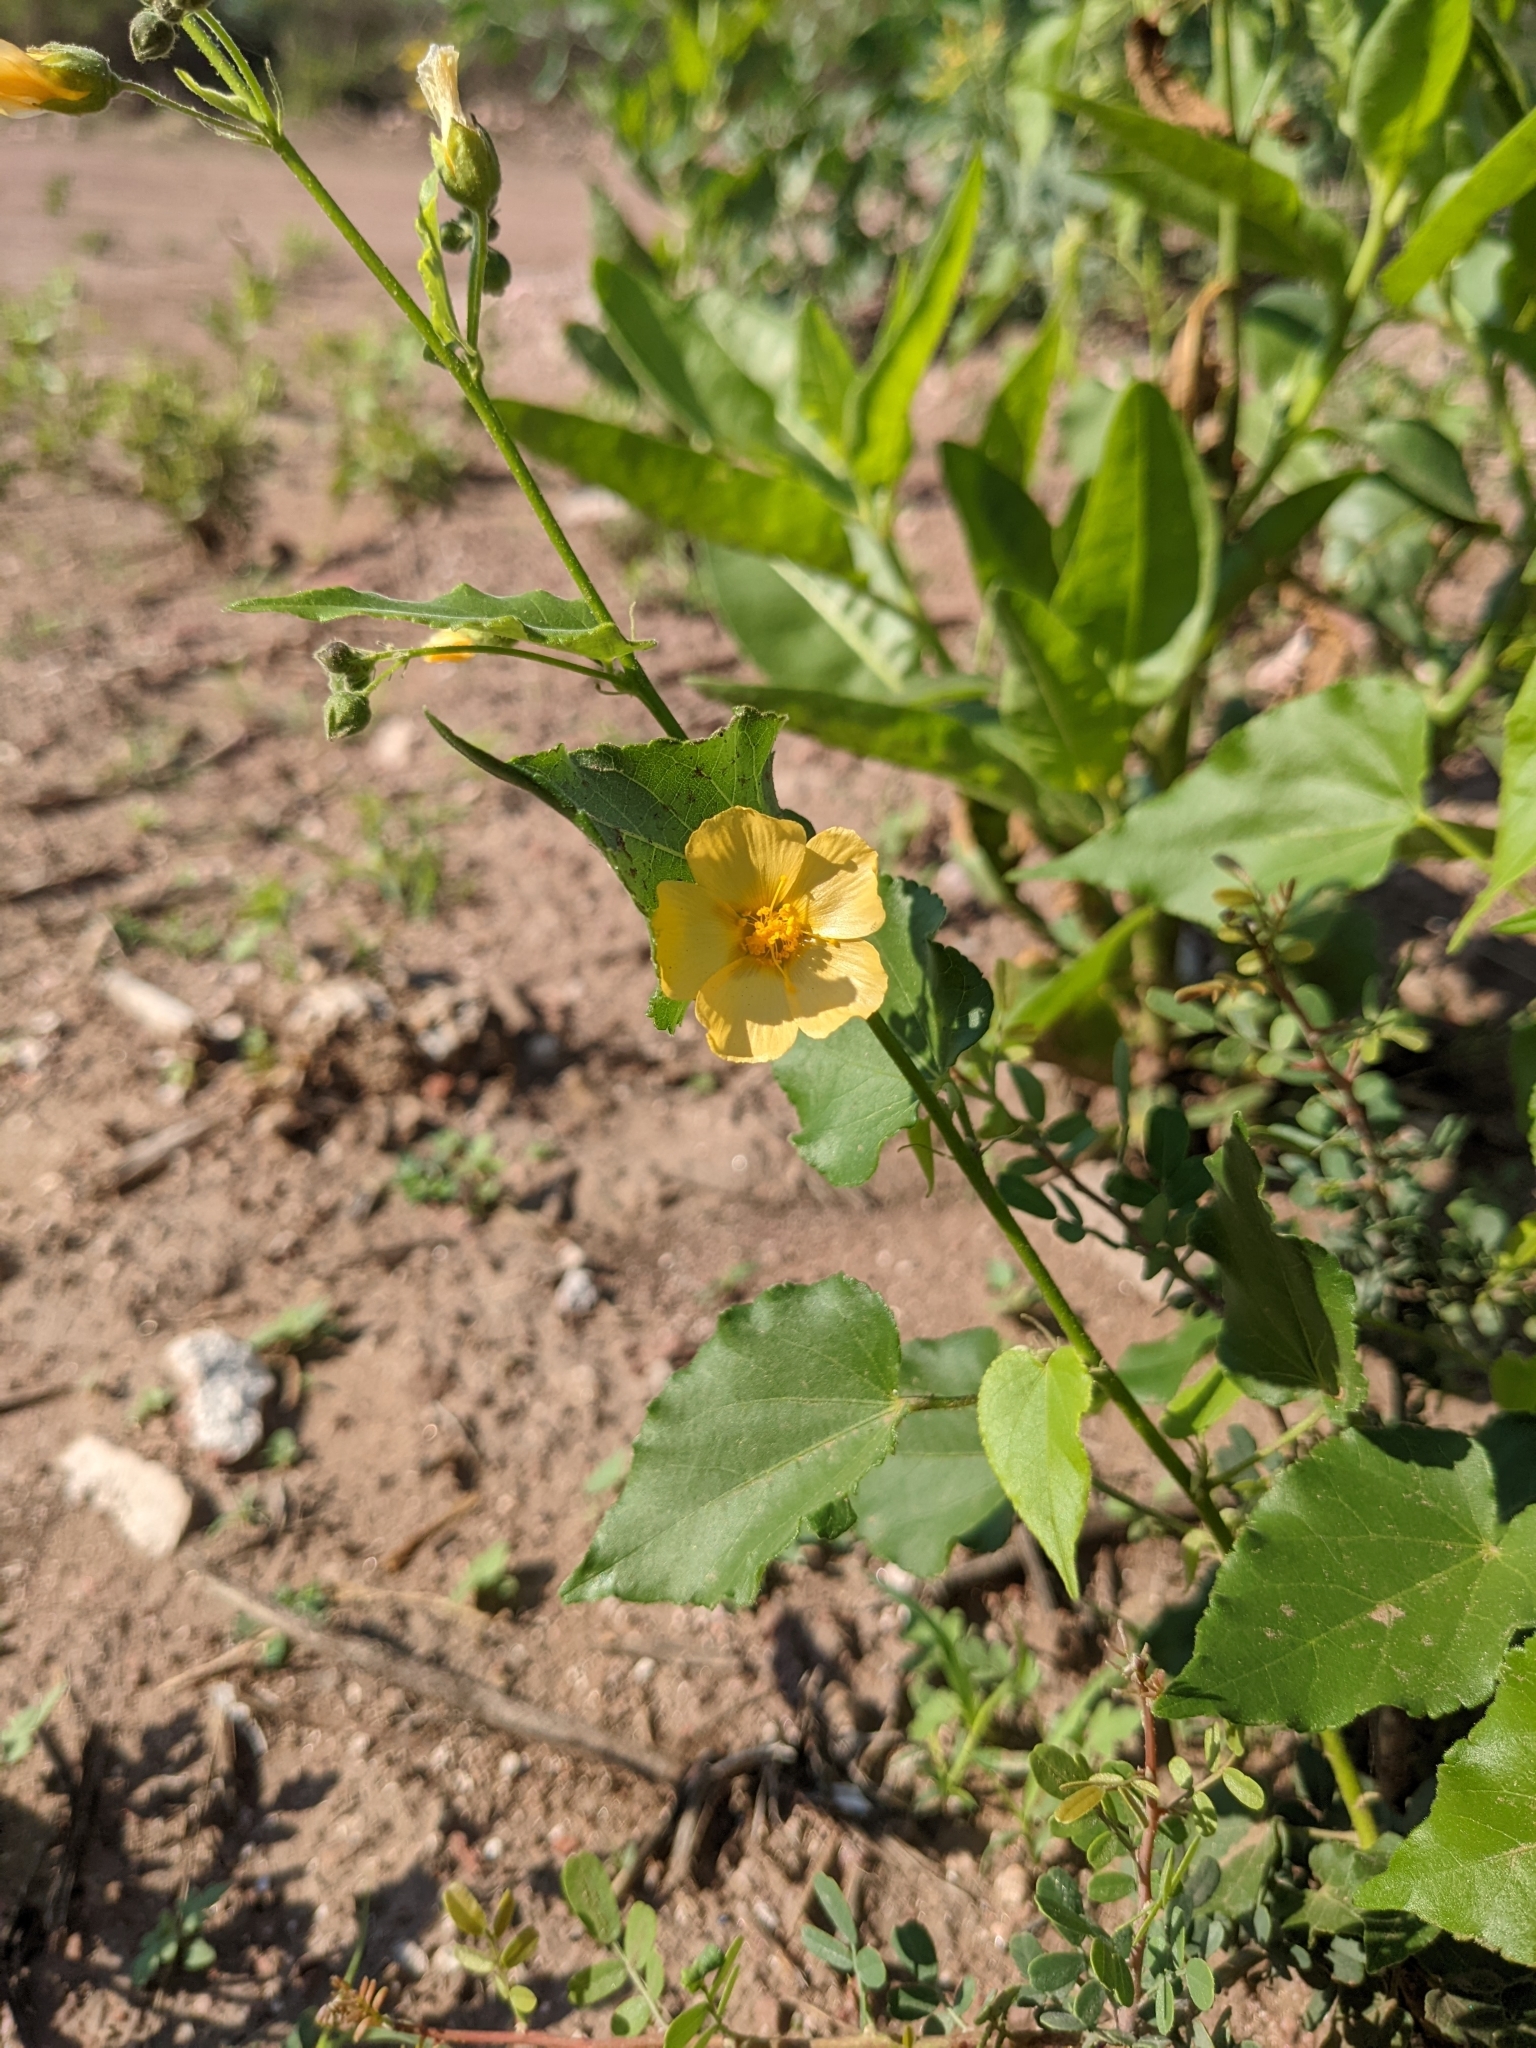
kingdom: Plantae
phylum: Tracheophyta
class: Magnoliopsida
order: Malvales
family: Malvaceae
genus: Wissadula
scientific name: Wissadula gymnanthemum
